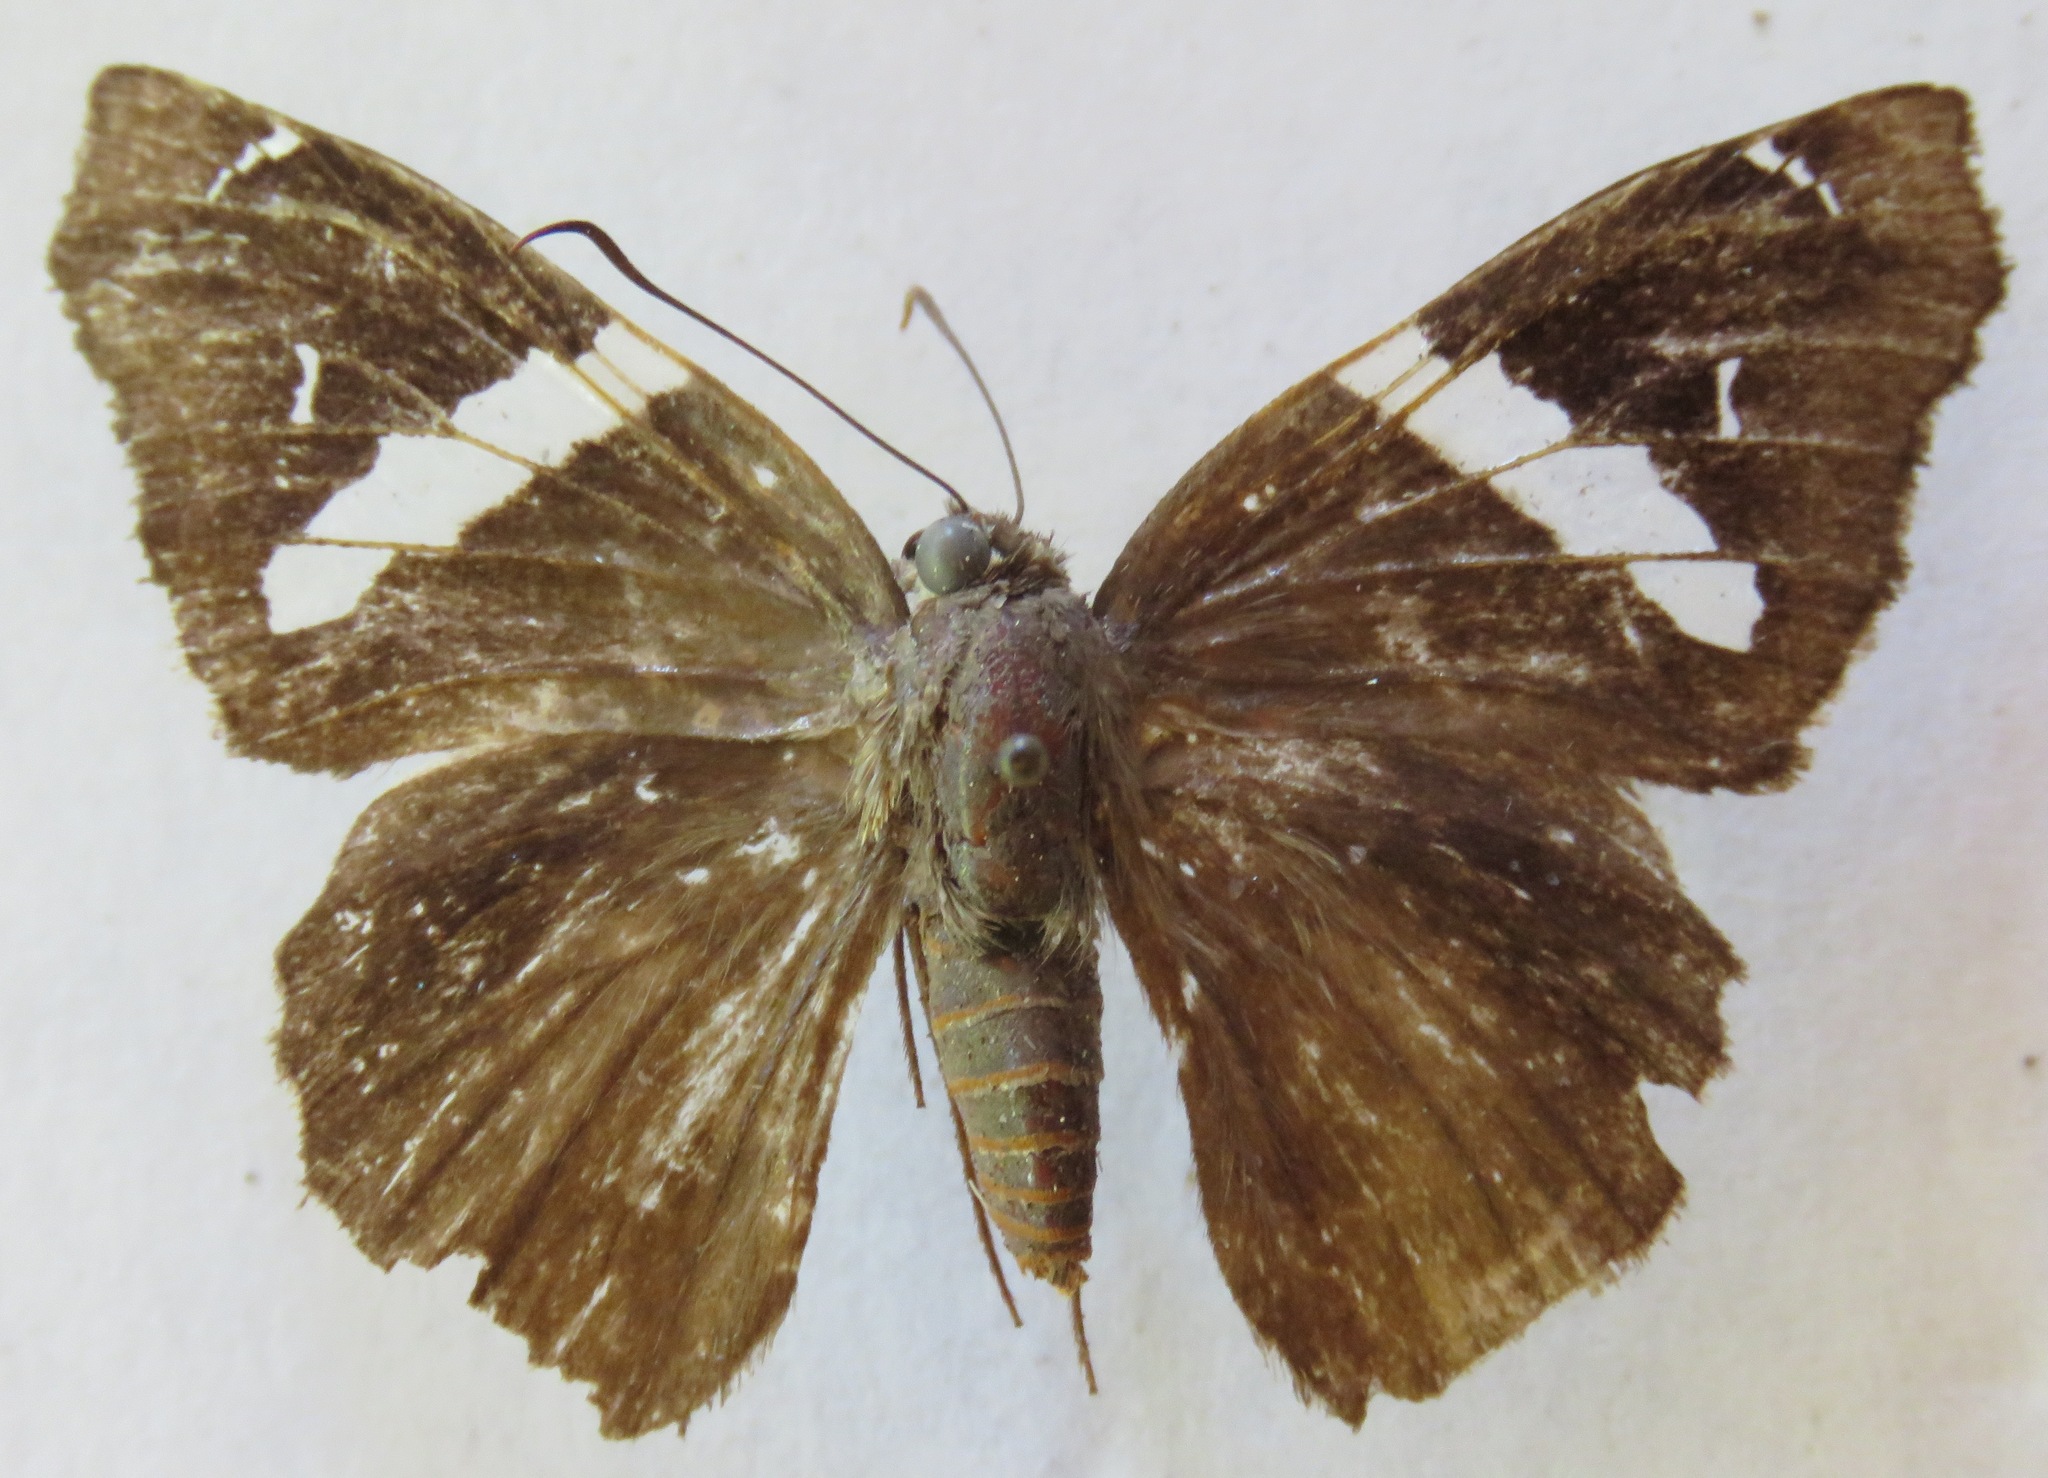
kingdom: Animalia
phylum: Arthropoda
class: Insecta
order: Lepidoptera
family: Hesperiidae
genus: Spathilepia
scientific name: Spathilepia clonius
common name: Falcate skipper
